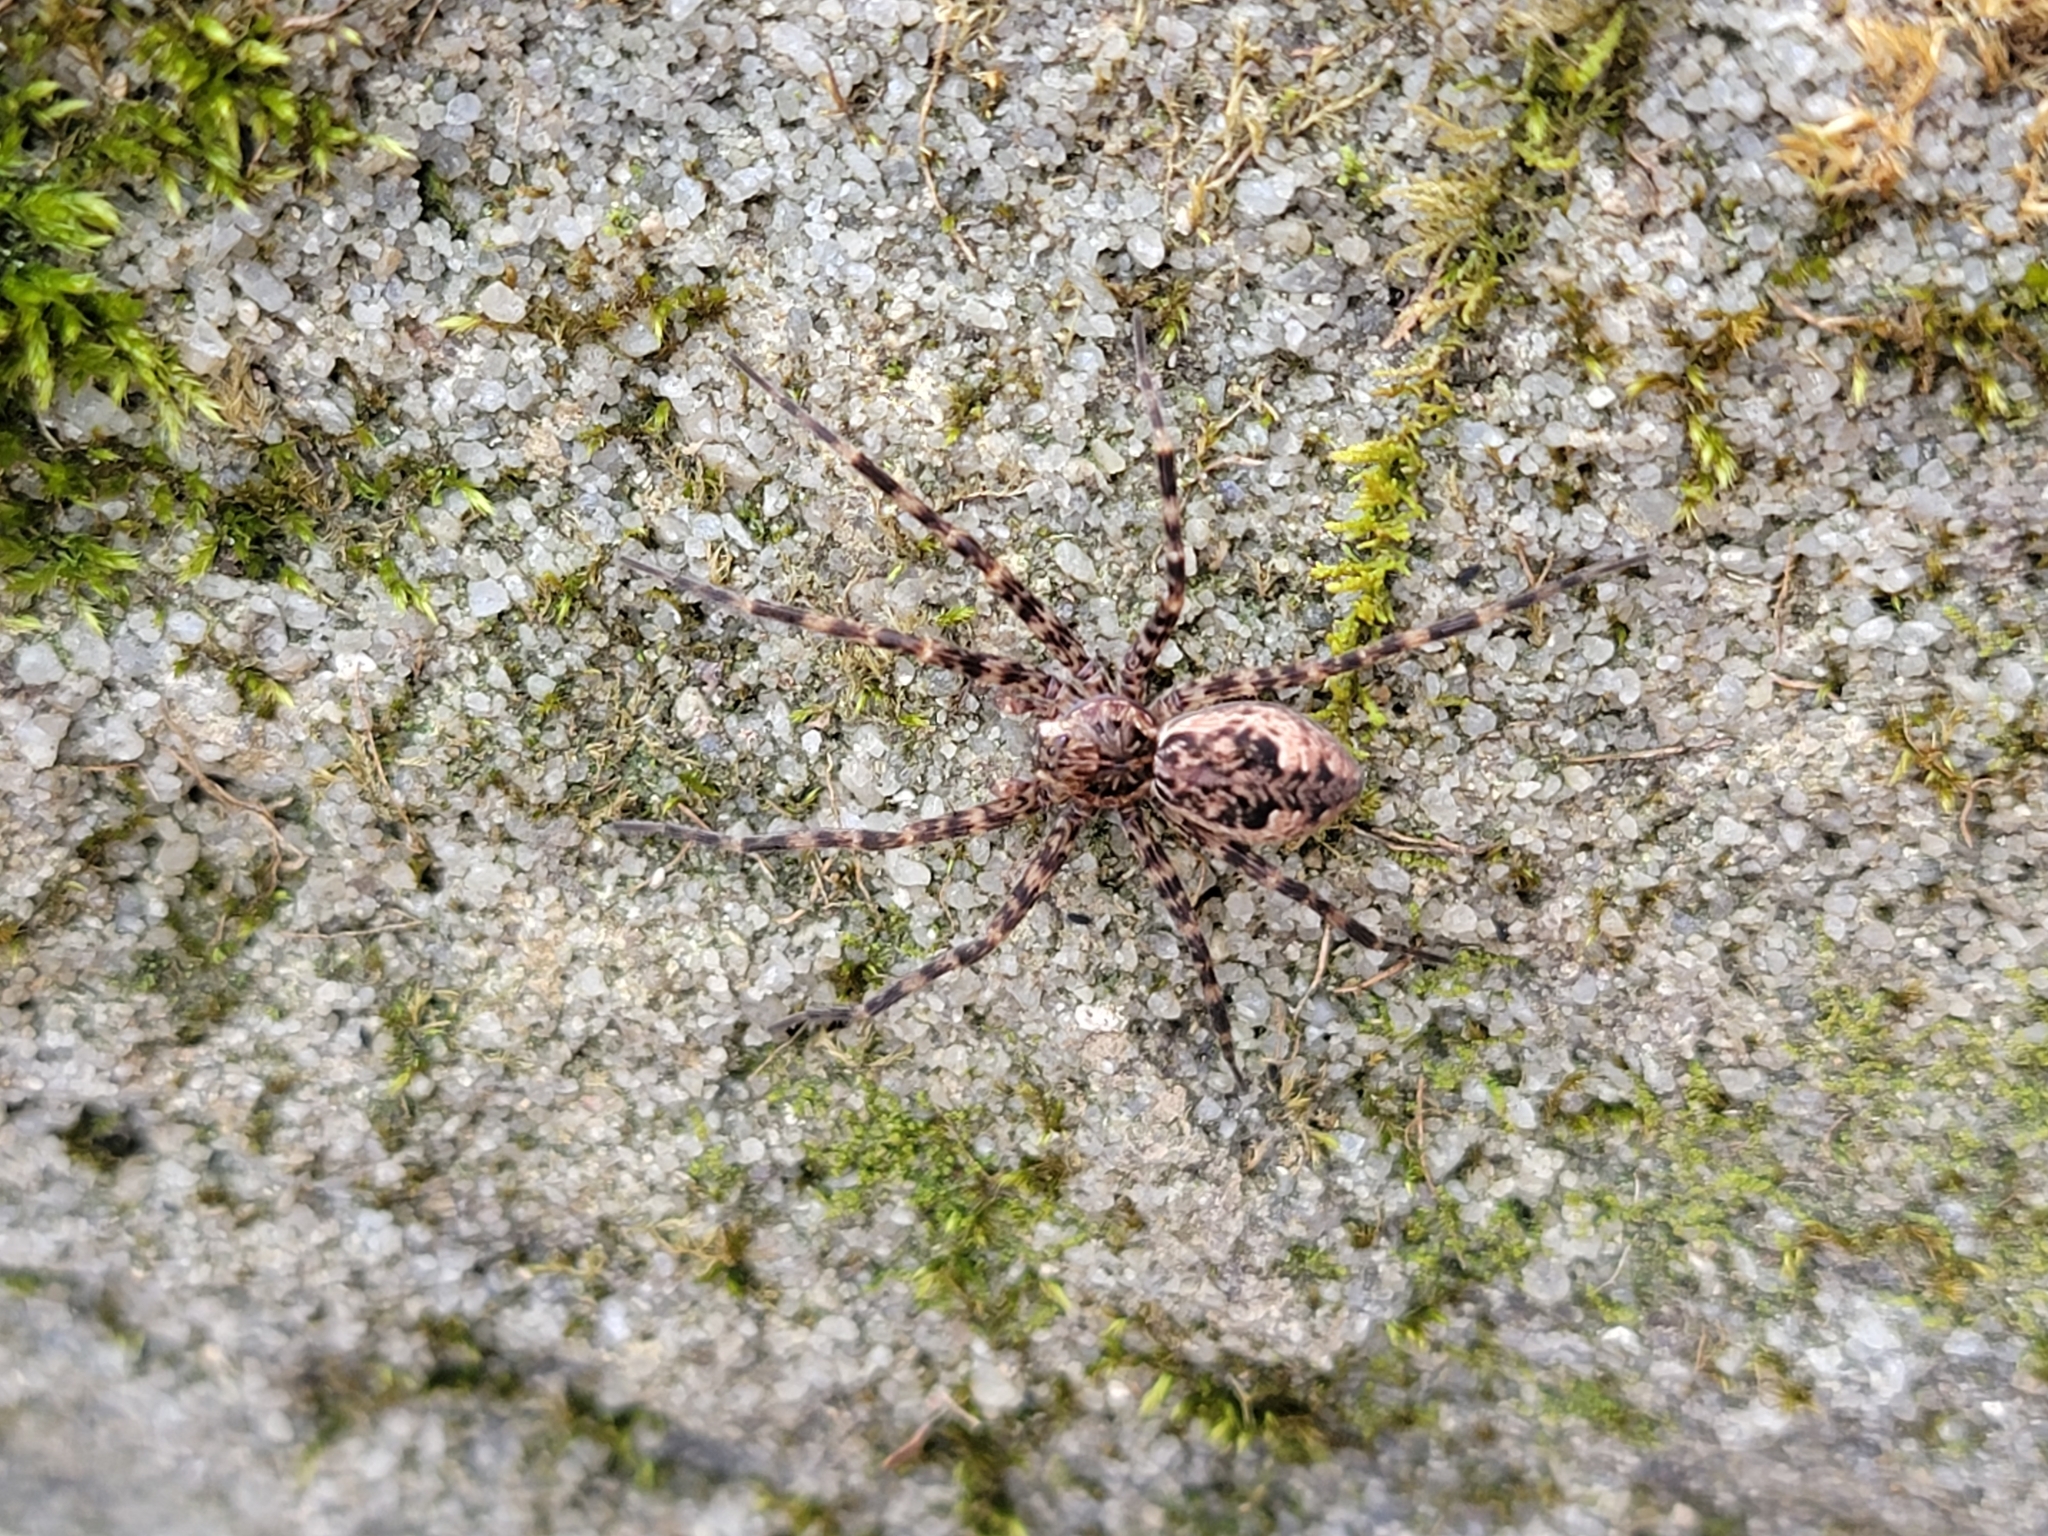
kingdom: Animalia
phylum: Arthropoda
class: Arachnida
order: Araneae
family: Pisauridae
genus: Dolomedes
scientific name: Dolomedes tenebrosus
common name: Dark fishing spider
